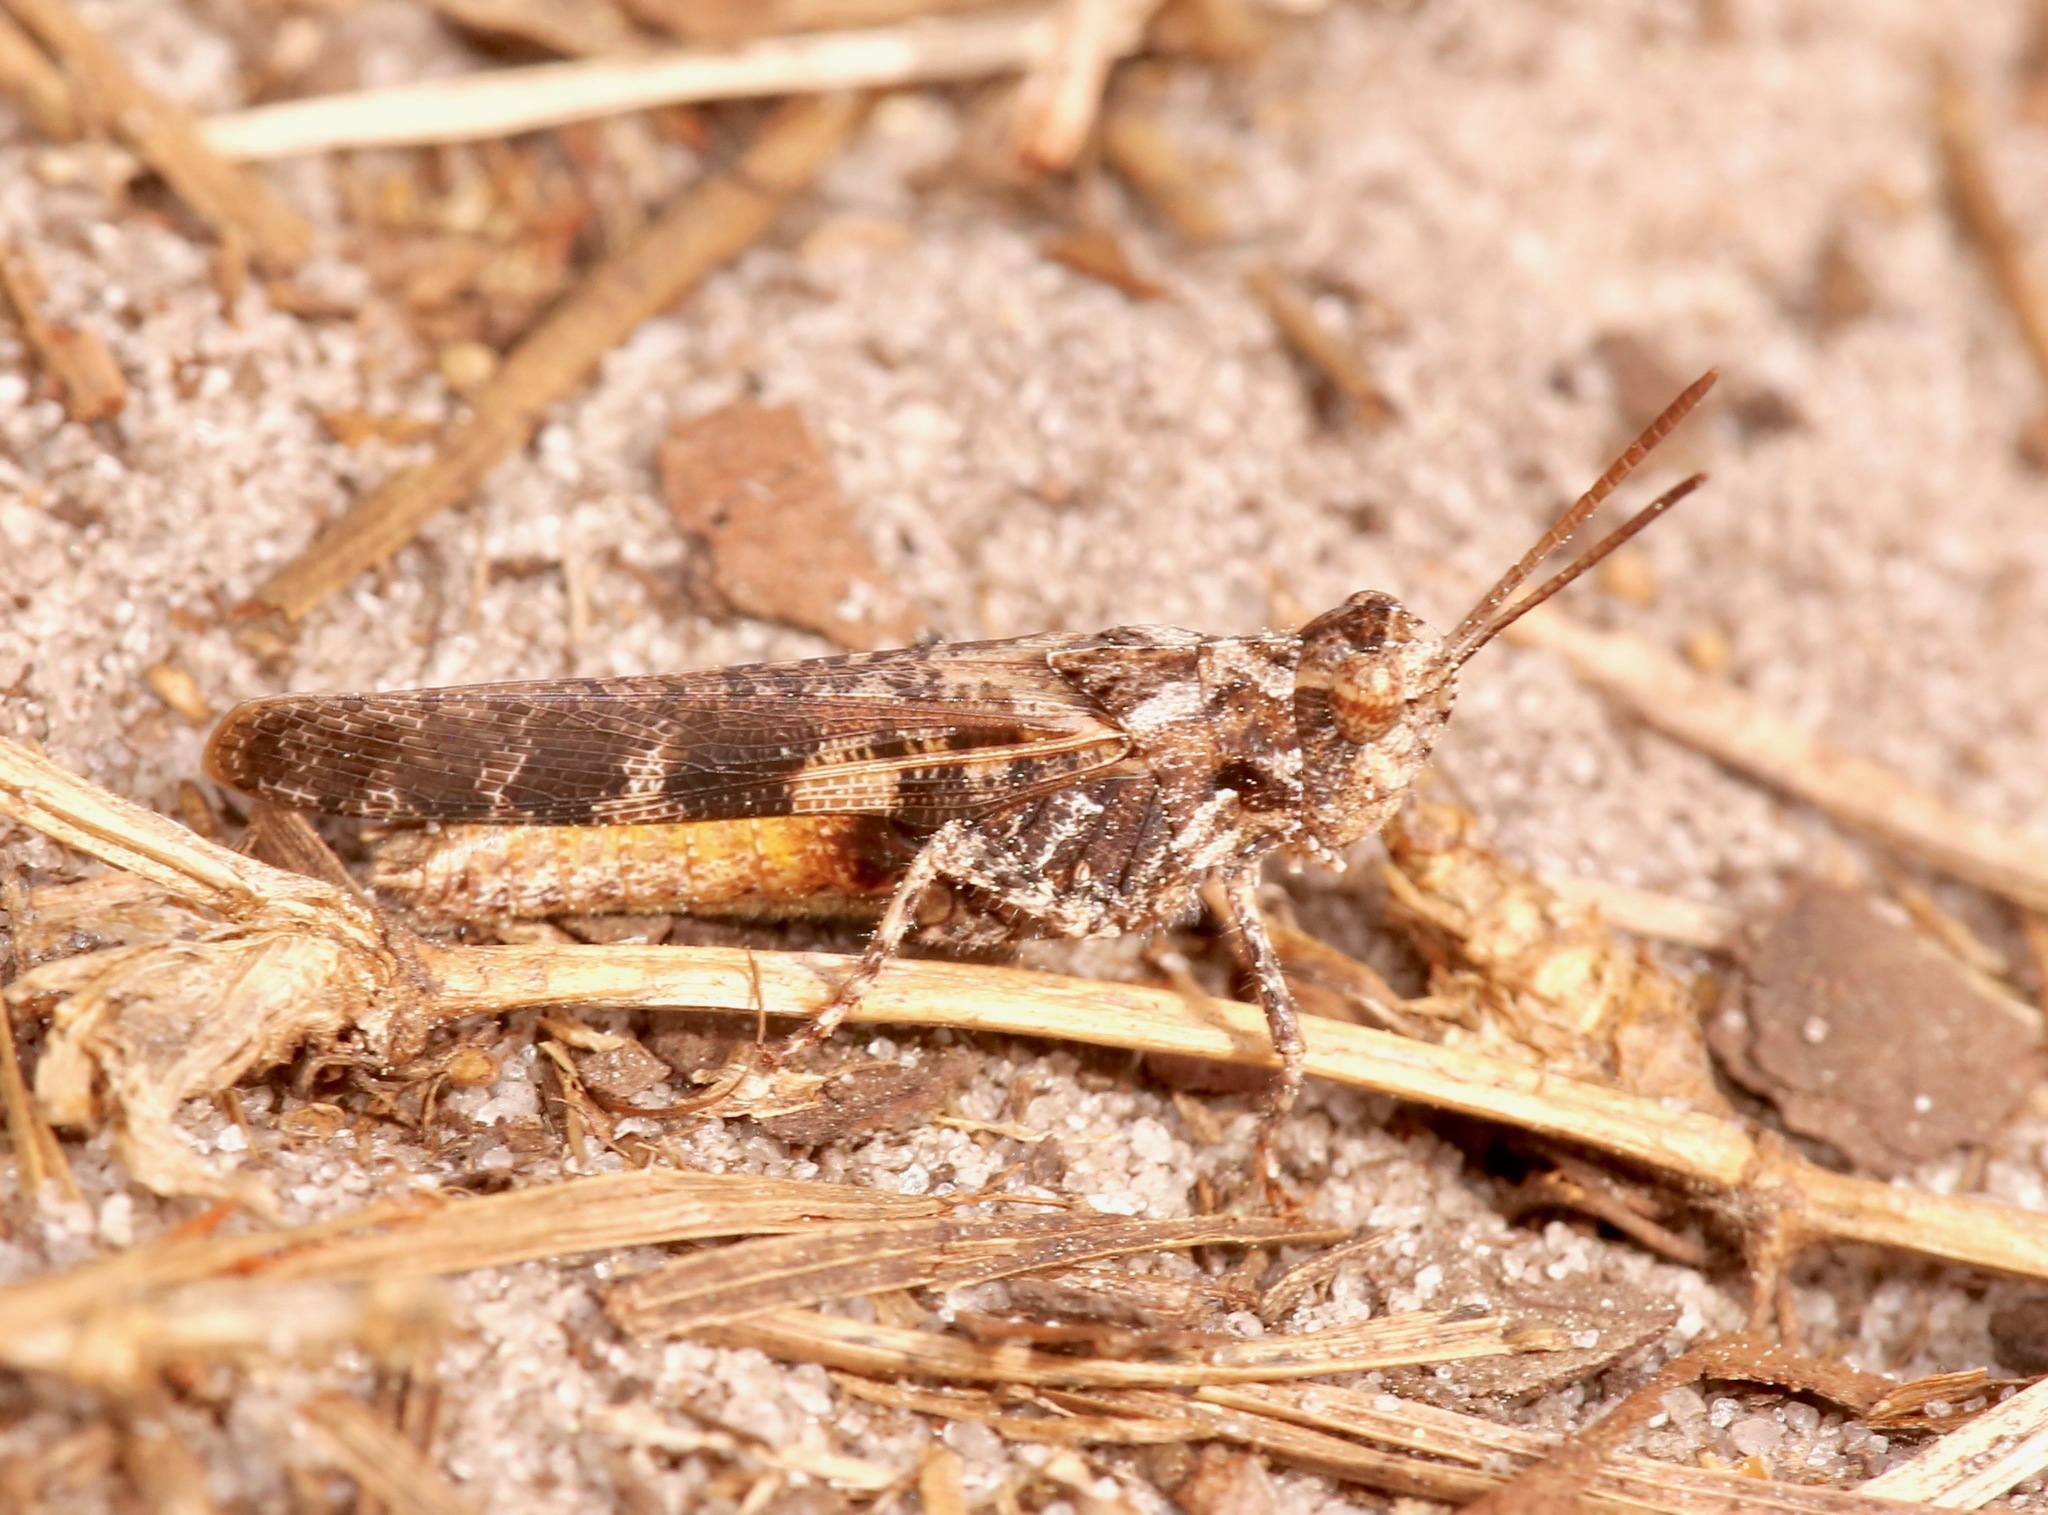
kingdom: Animalia
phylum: Arthropoda
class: Insecta
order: Orthoptera
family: Acrididae
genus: Chortophaga
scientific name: Chortophaga australior
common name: Southern green-striped grasshopper
